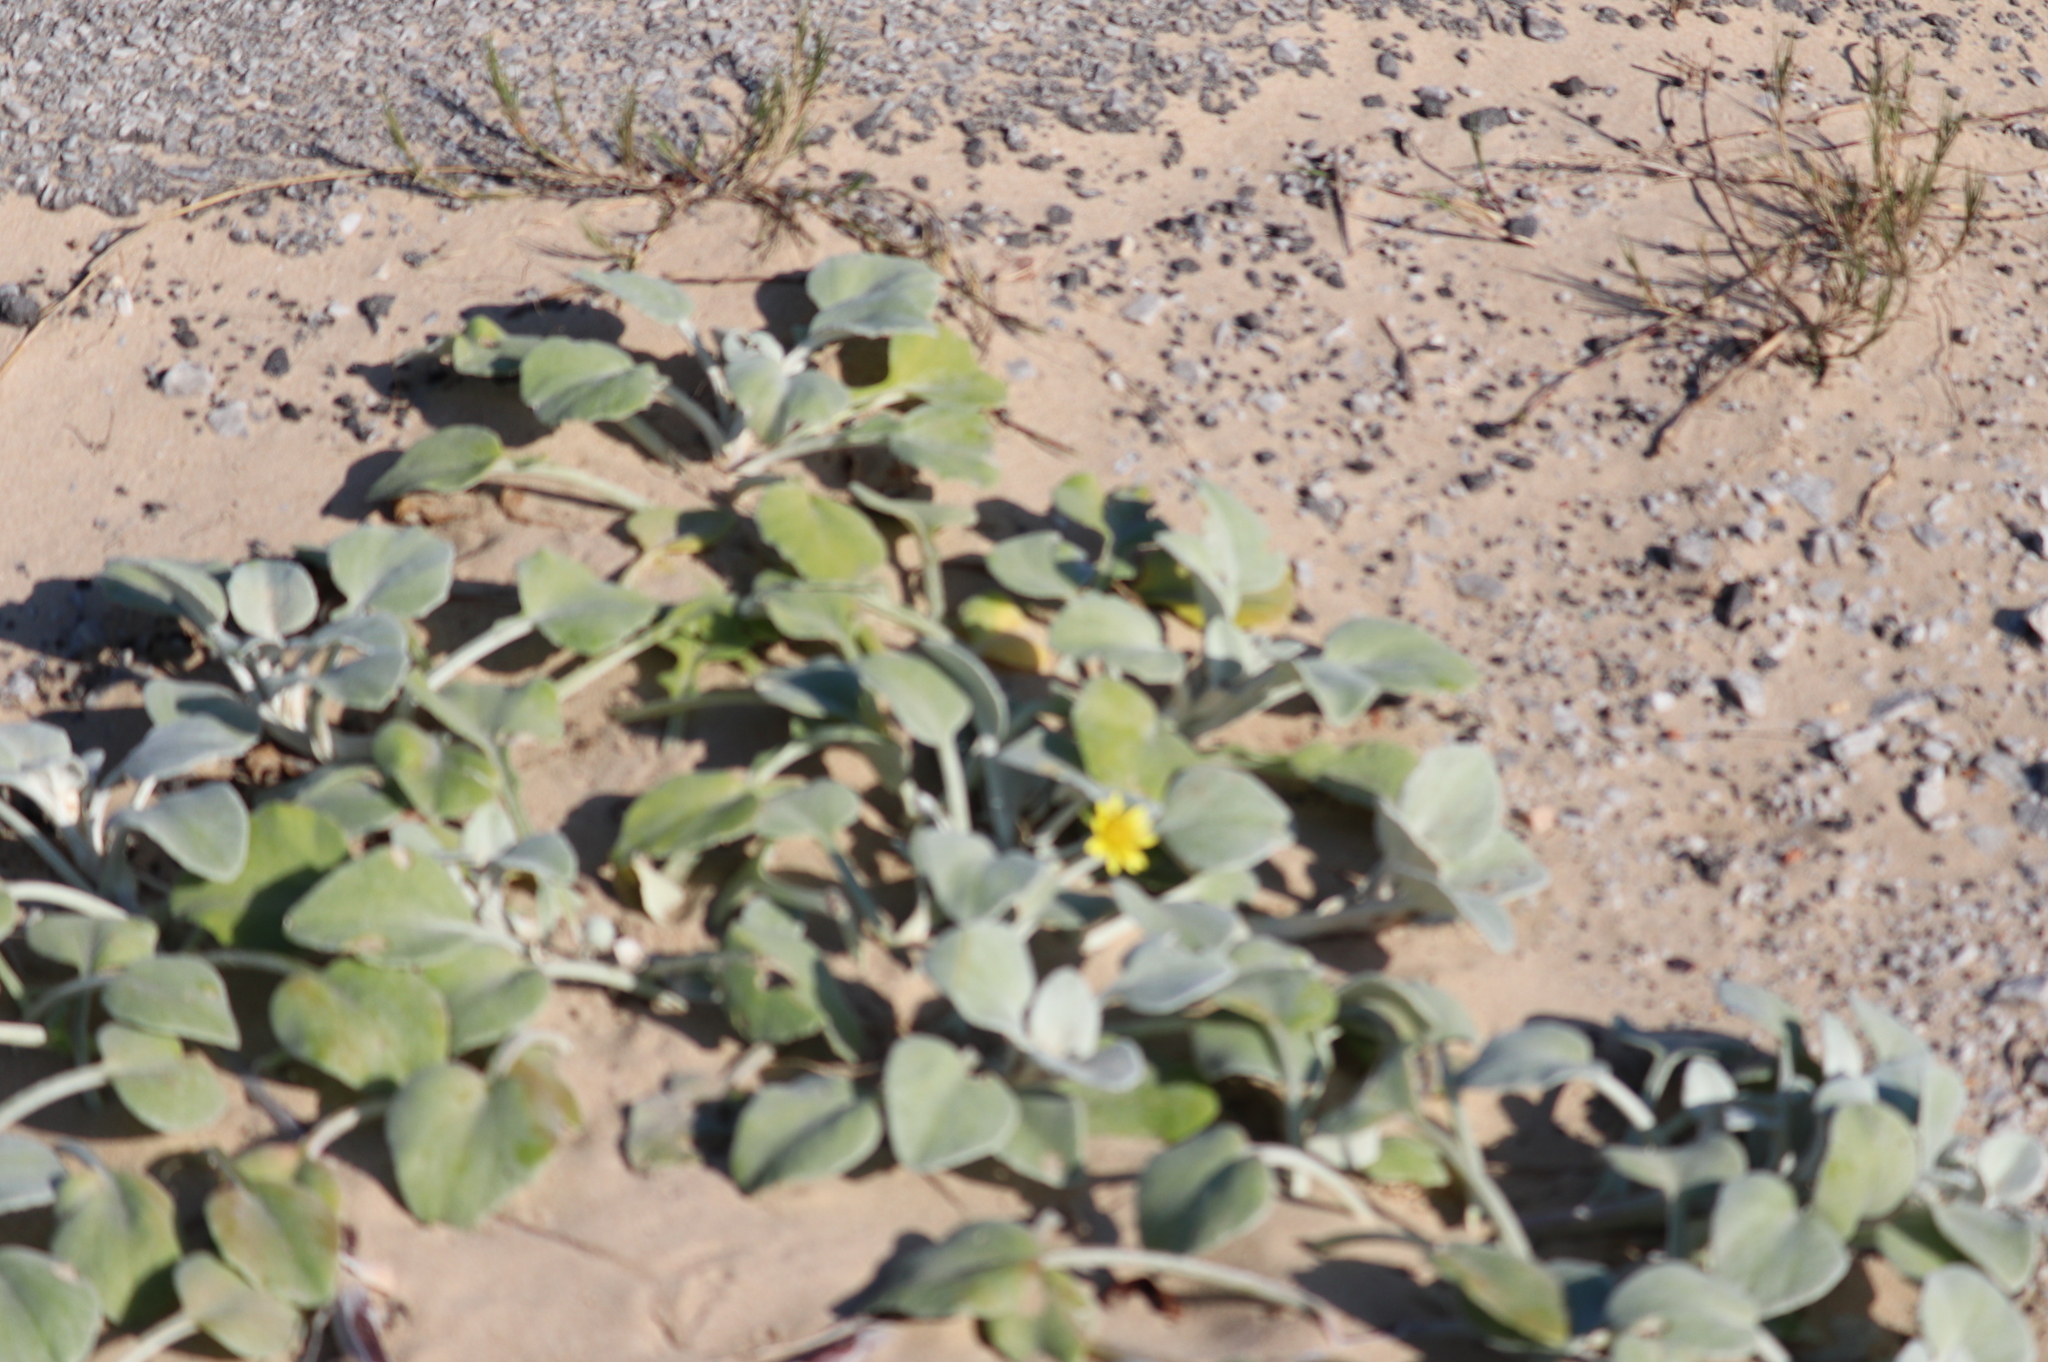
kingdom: Plantae
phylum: Tracheophyta
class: Magnoliopsida
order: Asterales
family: Asteraceae
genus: Arctotheca
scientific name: Arctotheca populifolia
